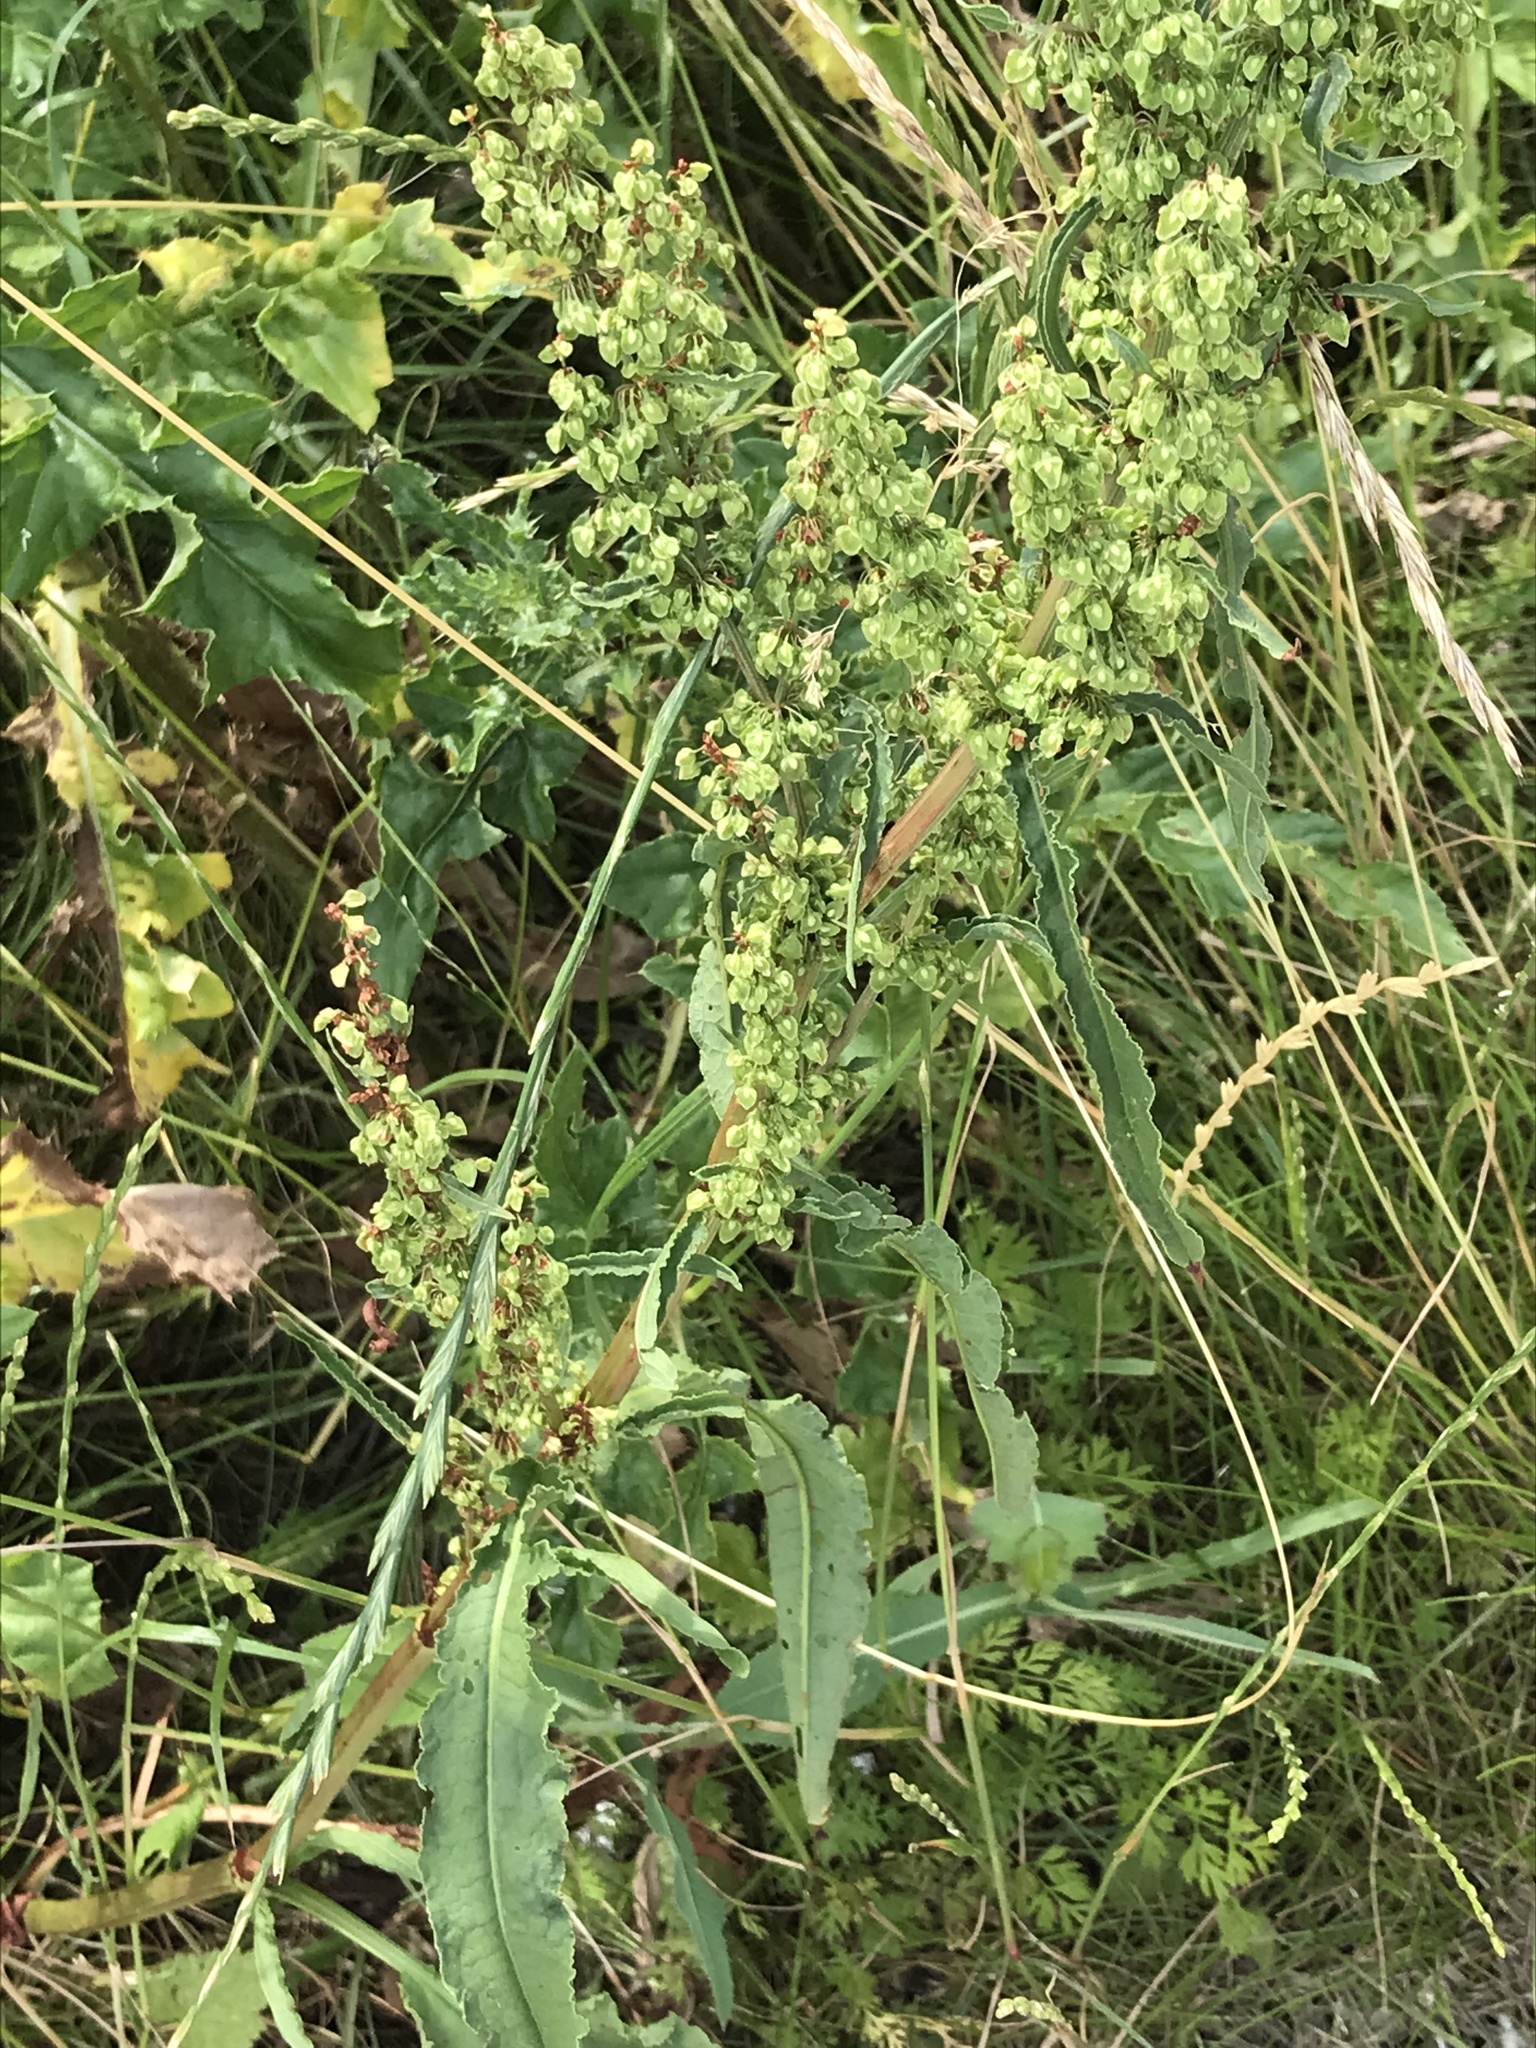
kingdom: Plantae
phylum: Tracheophyta
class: Magnoliopsida
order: Caryophyllales
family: Polygonaceae
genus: Rumex
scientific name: Rumex crispus
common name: Curled dock
